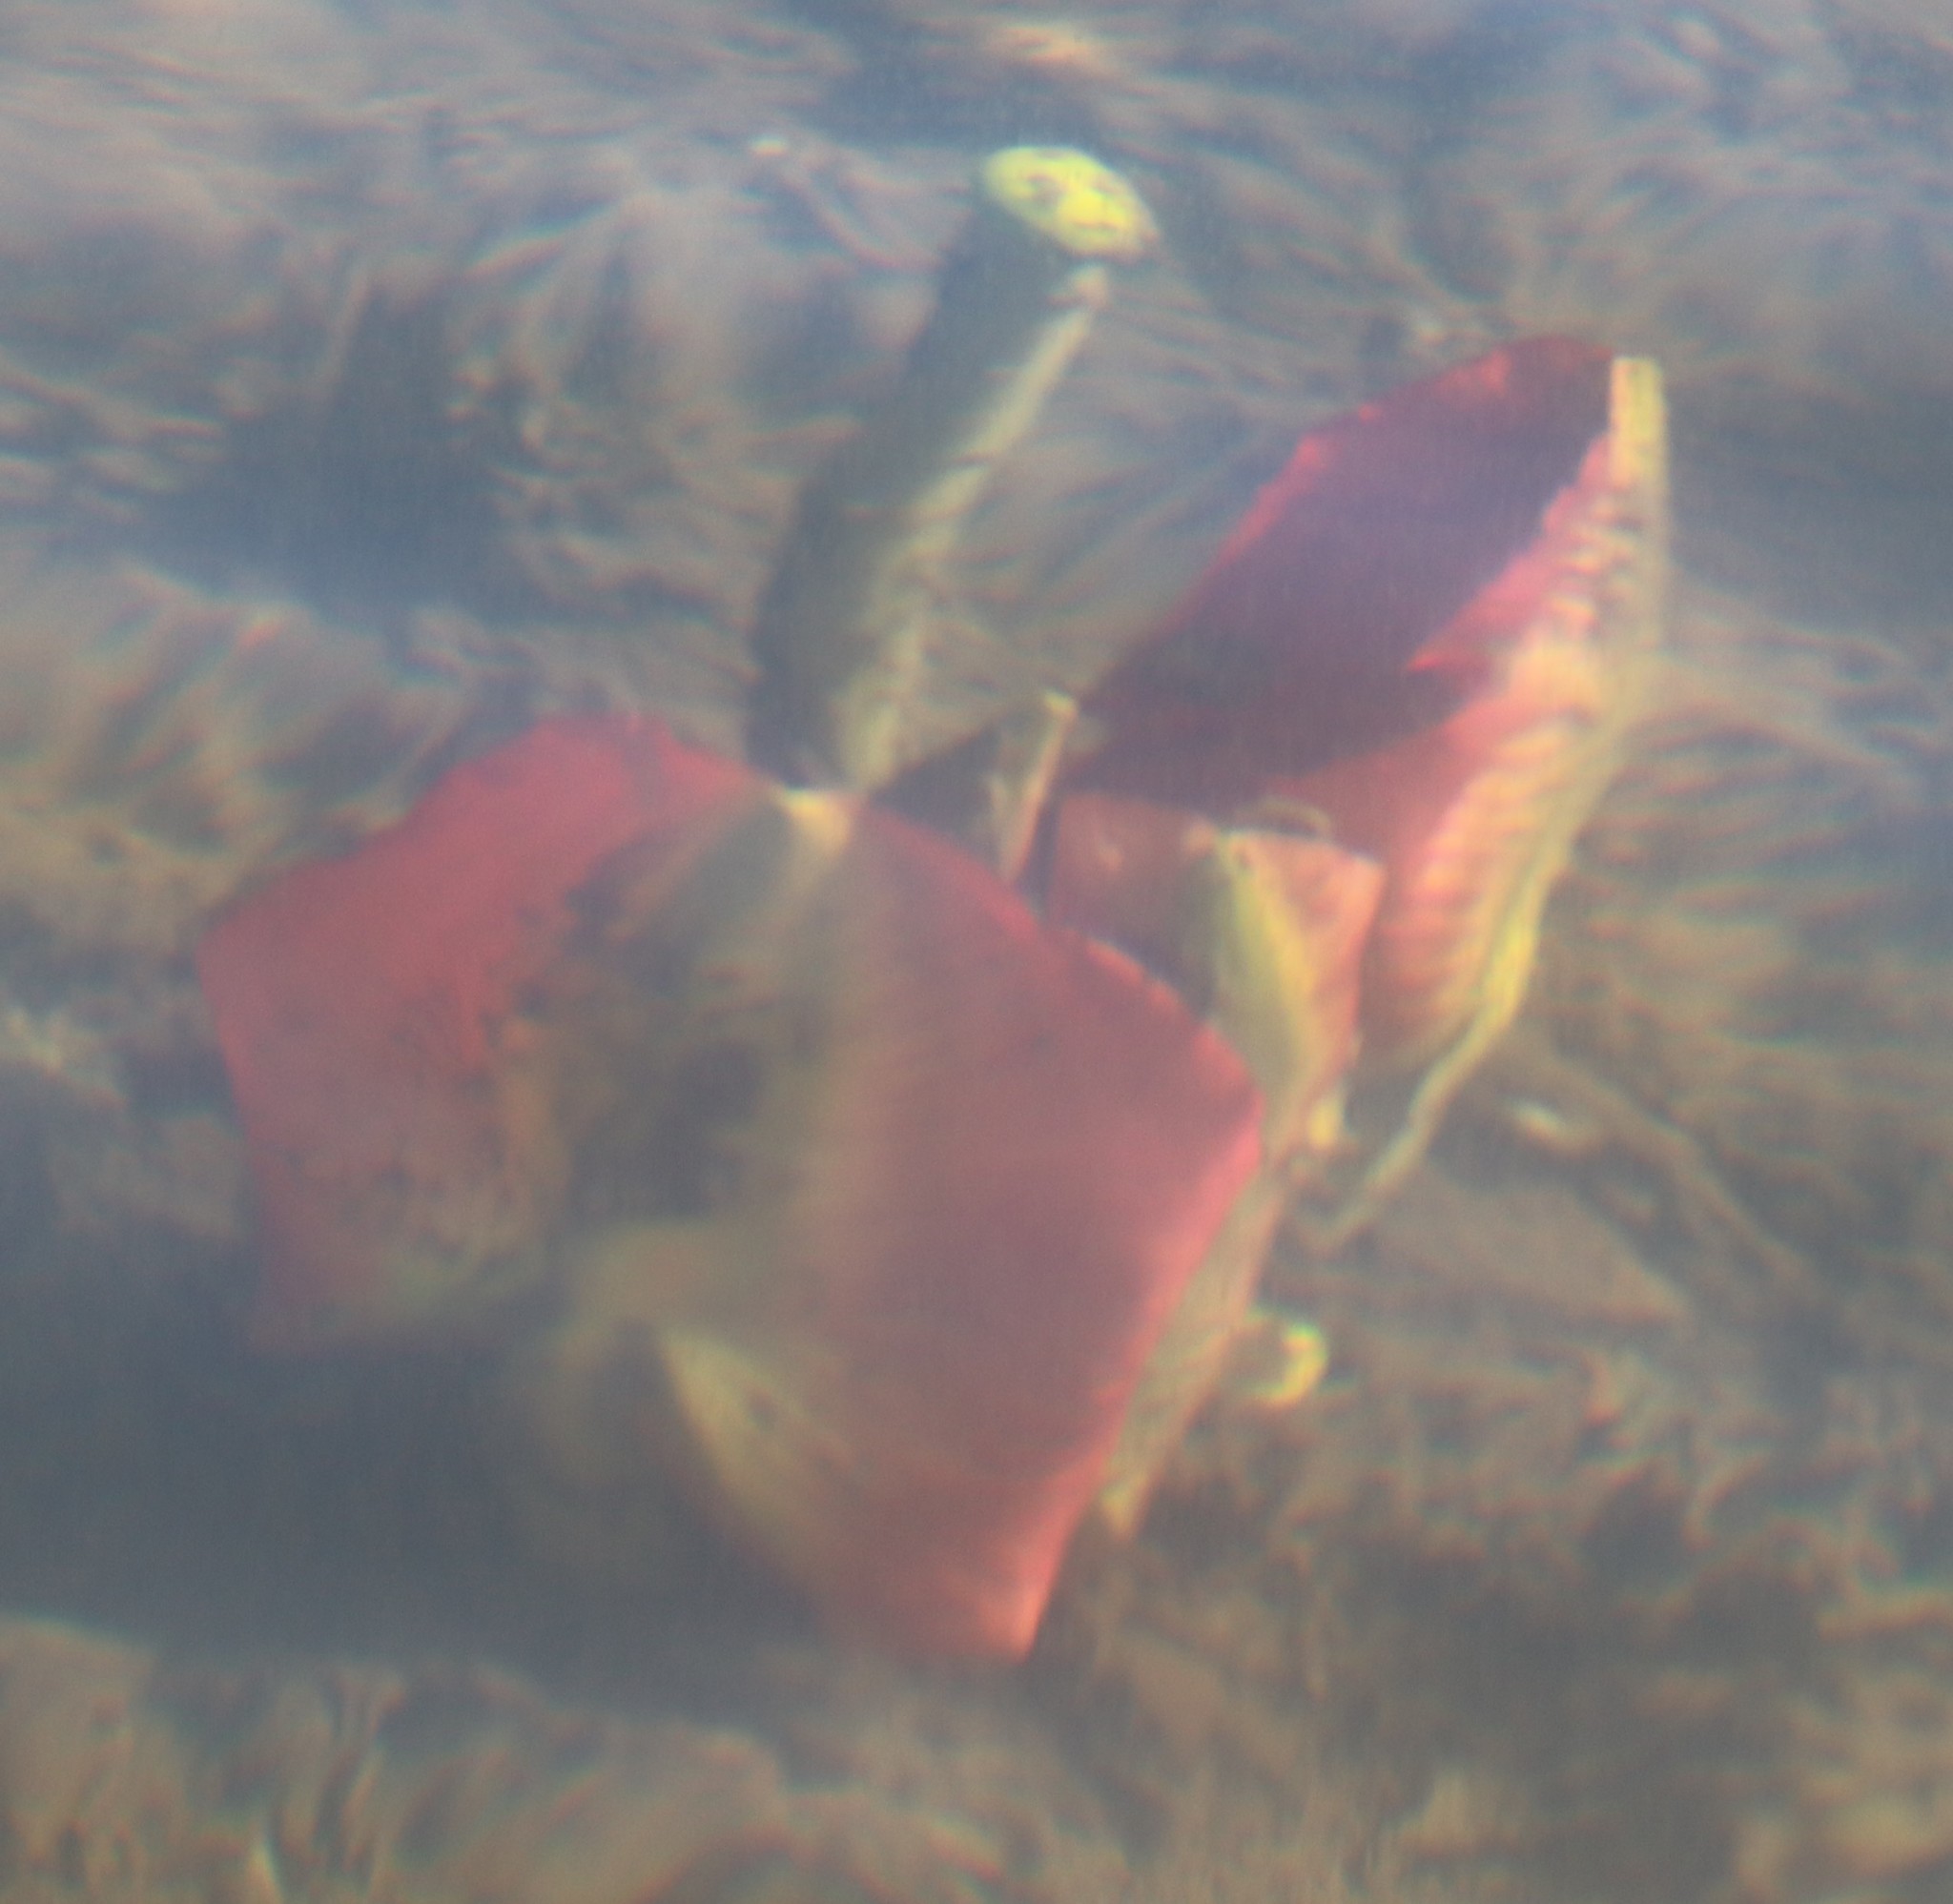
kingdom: Plantae
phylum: Tracheophyta
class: Magnoliopsida
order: Nymphaeales
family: Nymphaeaceae
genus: Nuphar
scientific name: Nuphar variegata
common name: Beaver-root
